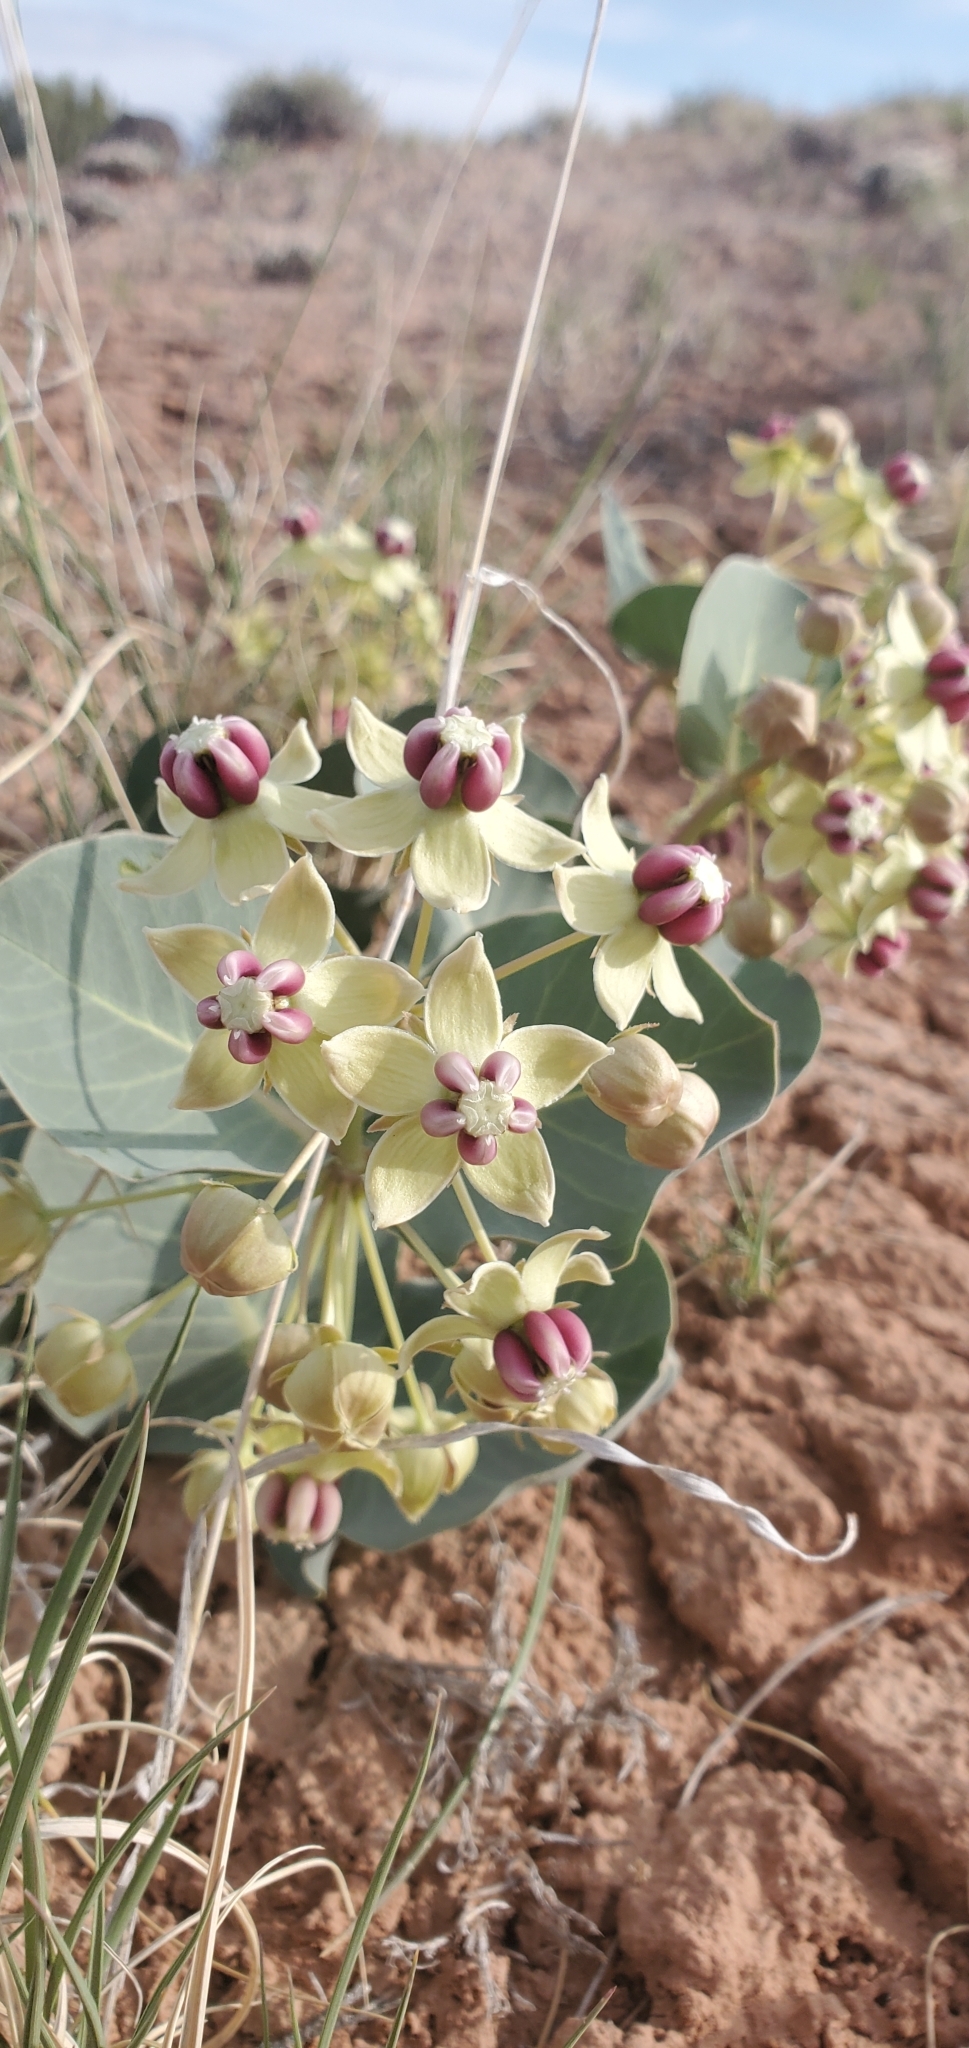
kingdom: Plantae
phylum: Tracheophyta
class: Magnoliopsida
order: Gentianales
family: Apocynaceae
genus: Asclepias
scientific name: Asclepias cryptoceras
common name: Humboldt mountains milkweed
